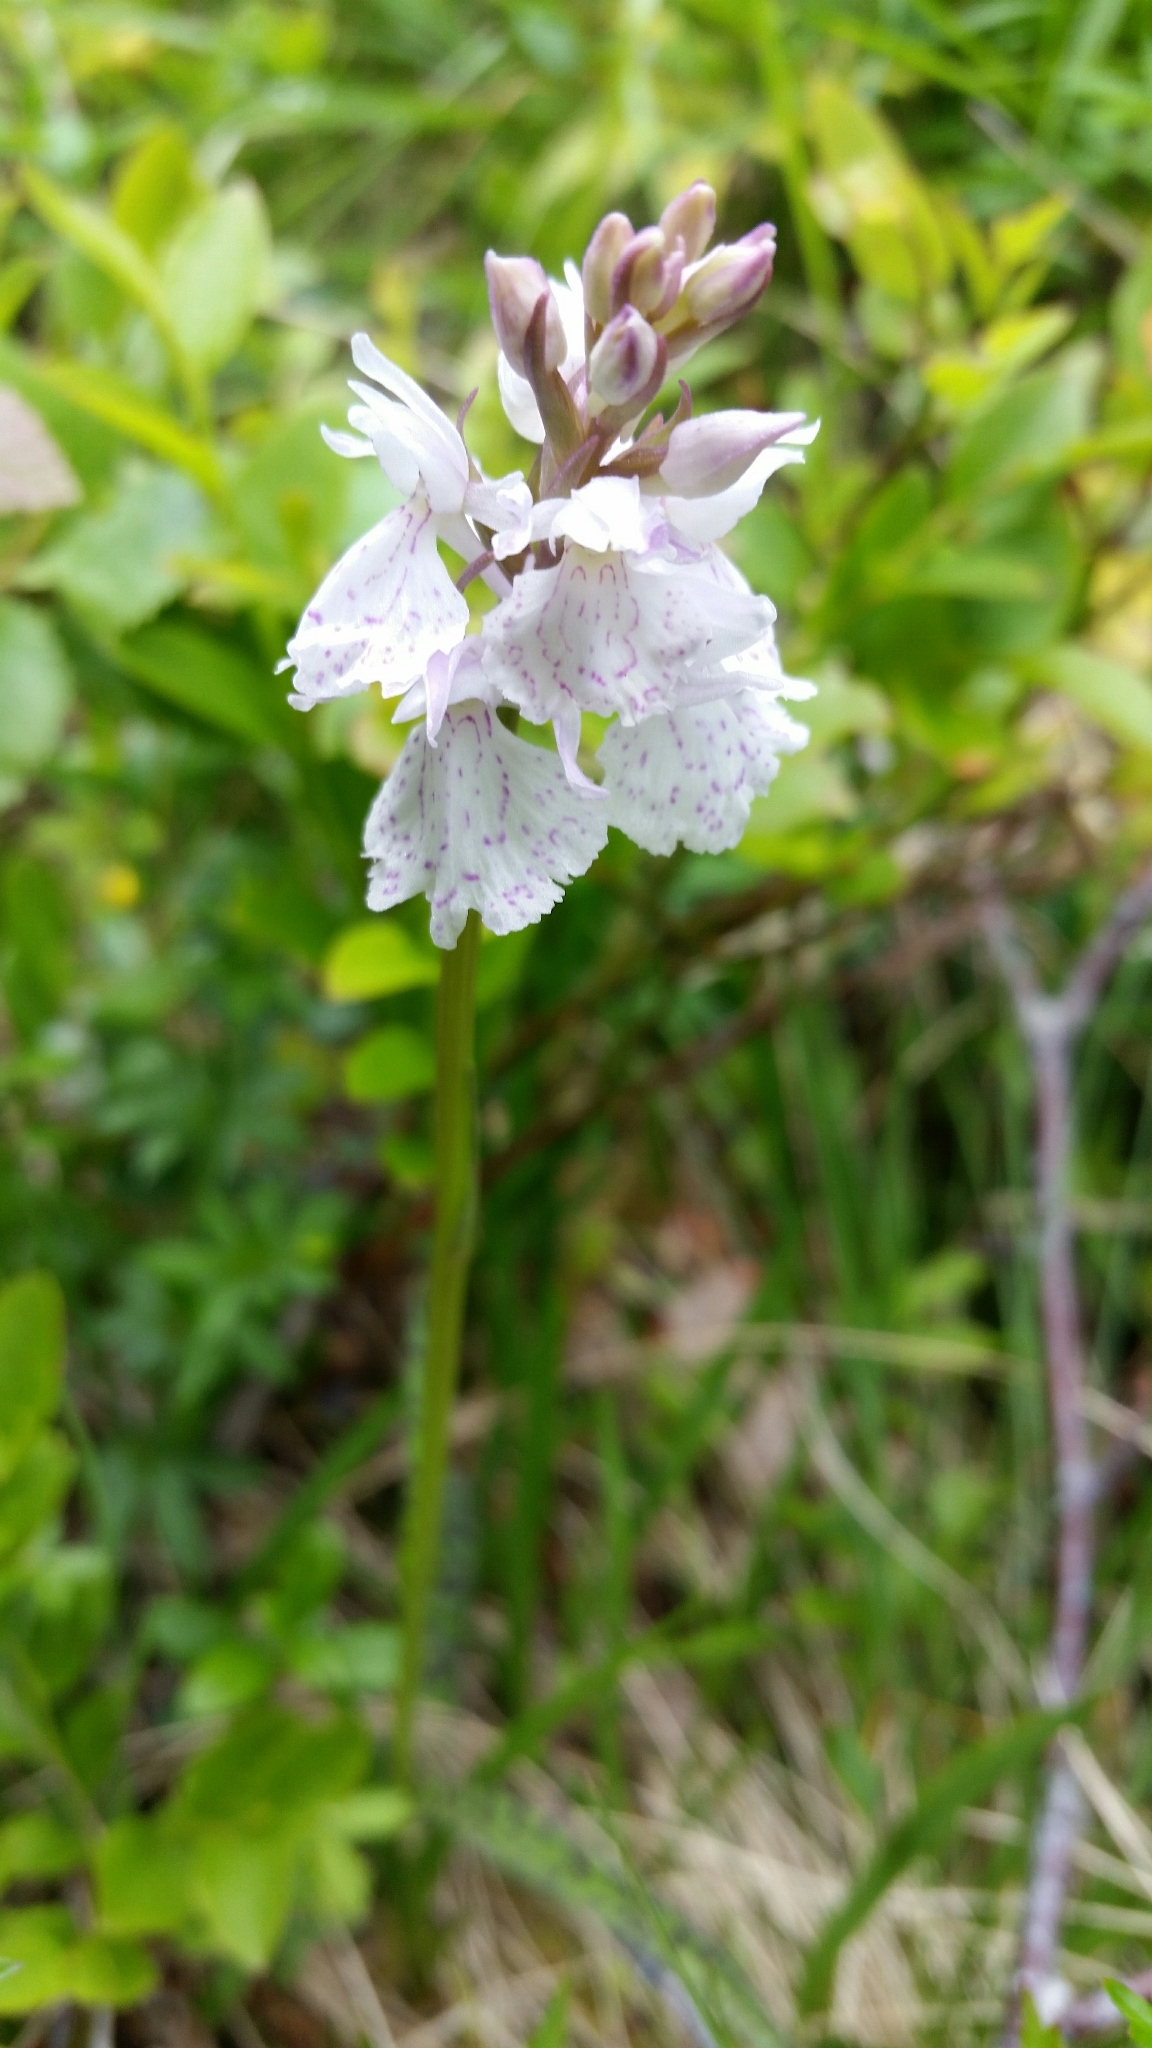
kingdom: Plantae
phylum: Tracheophyta
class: Liliopsida
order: Asparagales
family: Orchidaceae
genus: Dactylorhiza
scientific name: Dactylorhiza maculata
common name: Heath spotted-orchid
